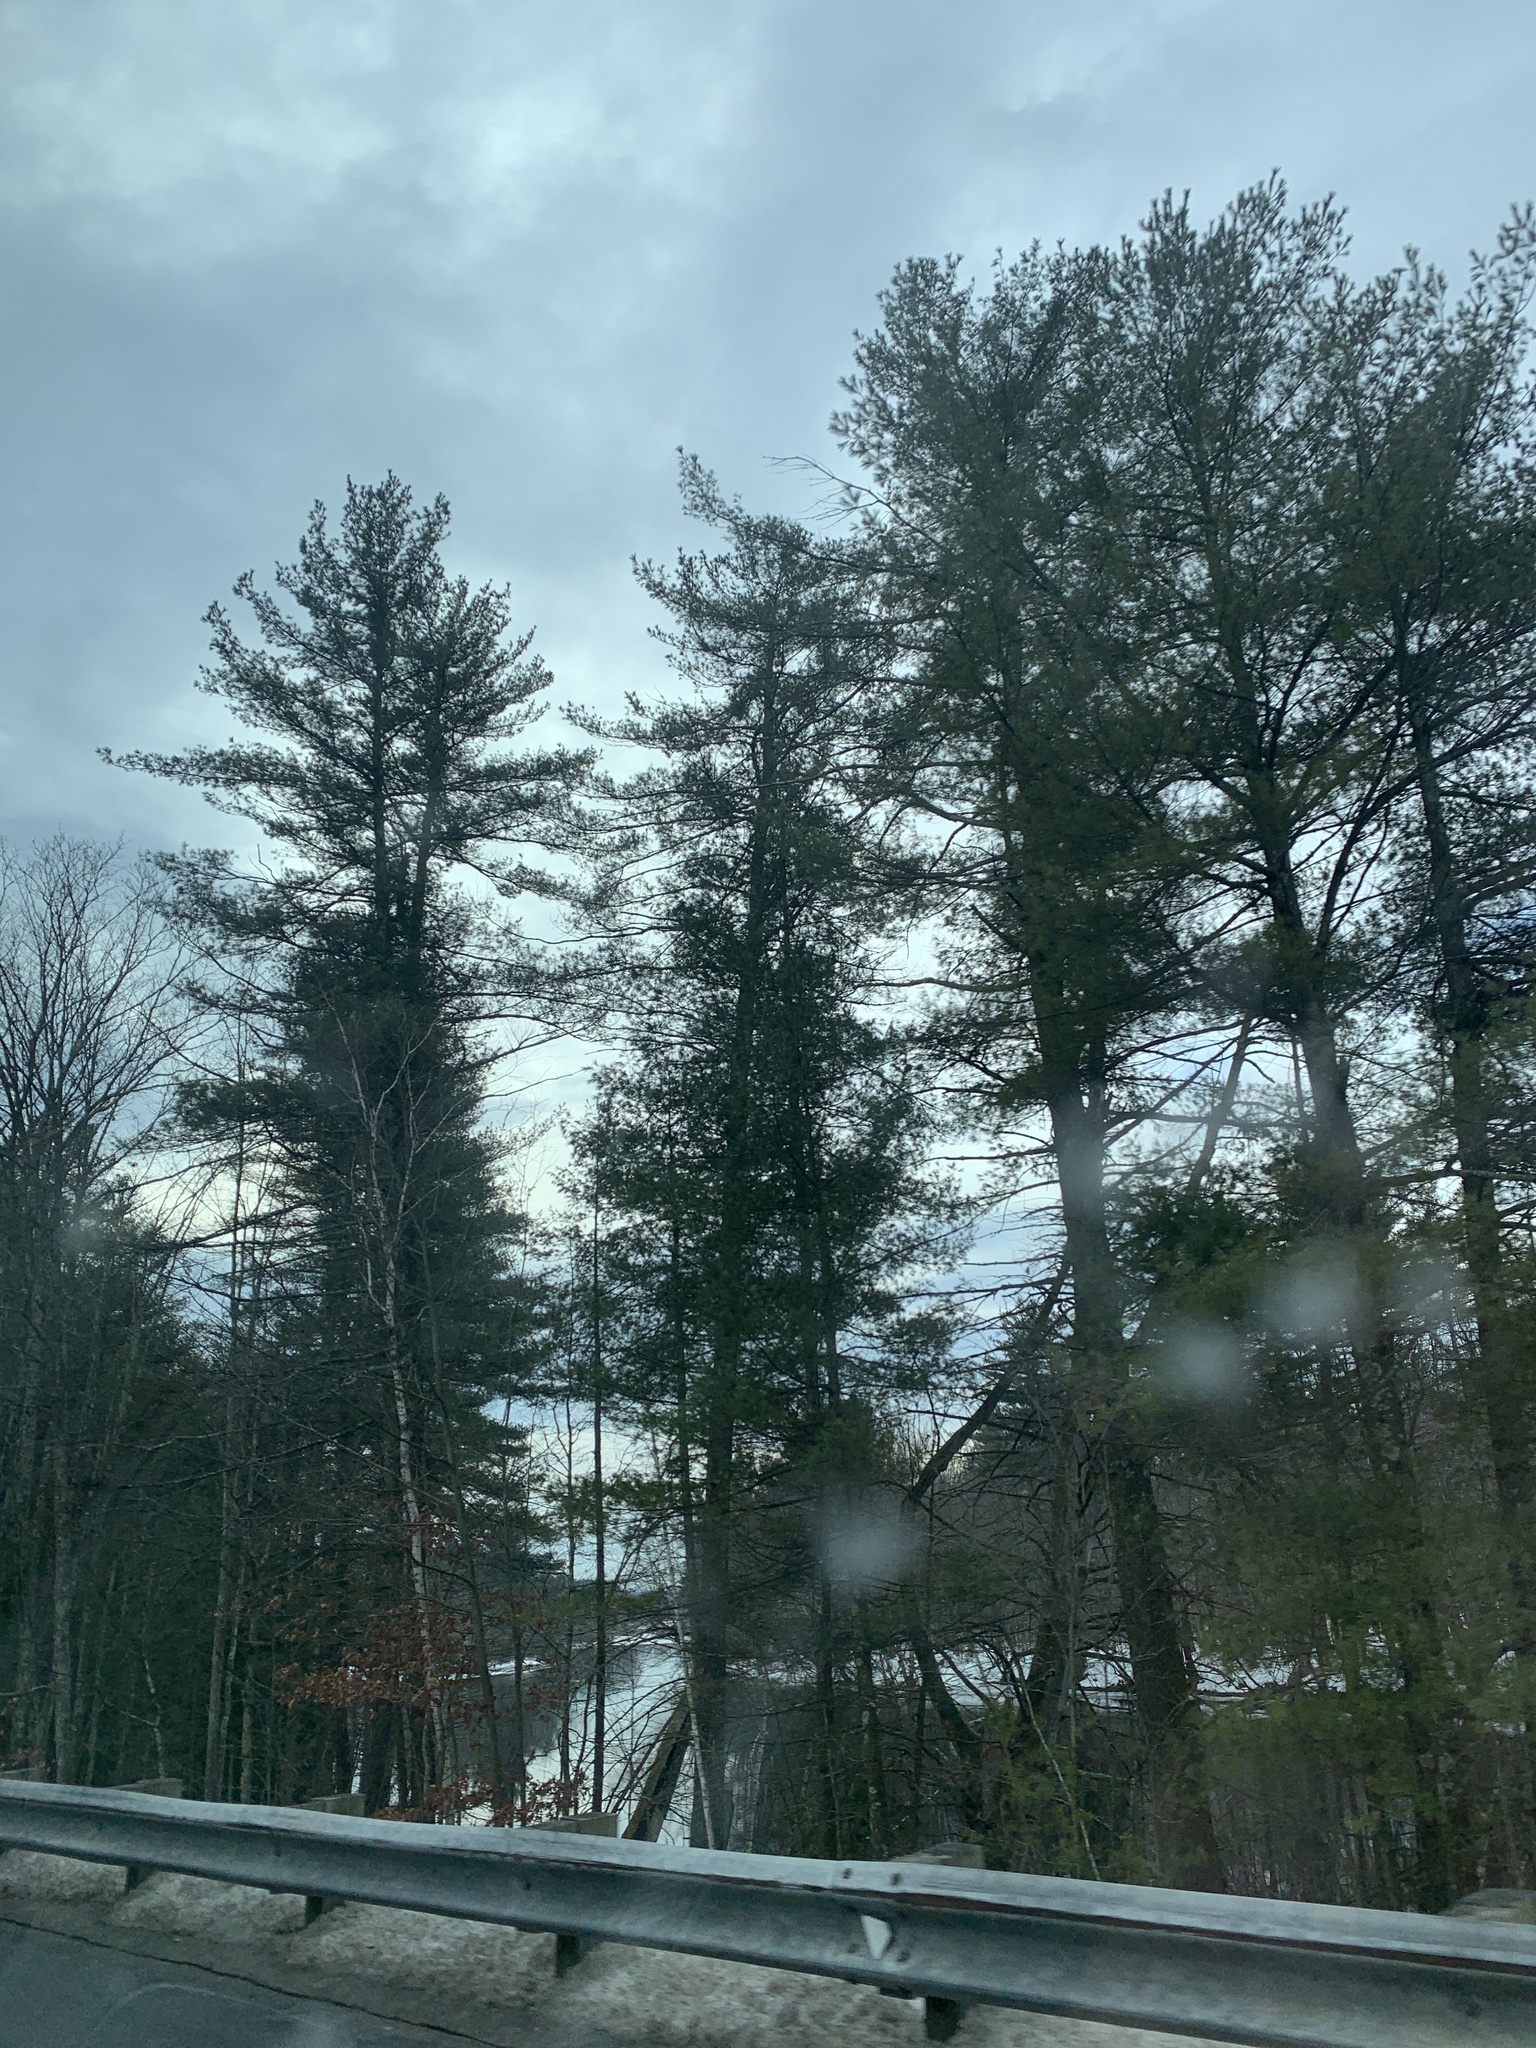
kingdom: Plantae
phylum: Tracheophyta
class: Pinopsida
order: Pinales
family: Pinaceae
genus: Pinus
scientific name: Pinus strobus
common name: Weymouth pine
